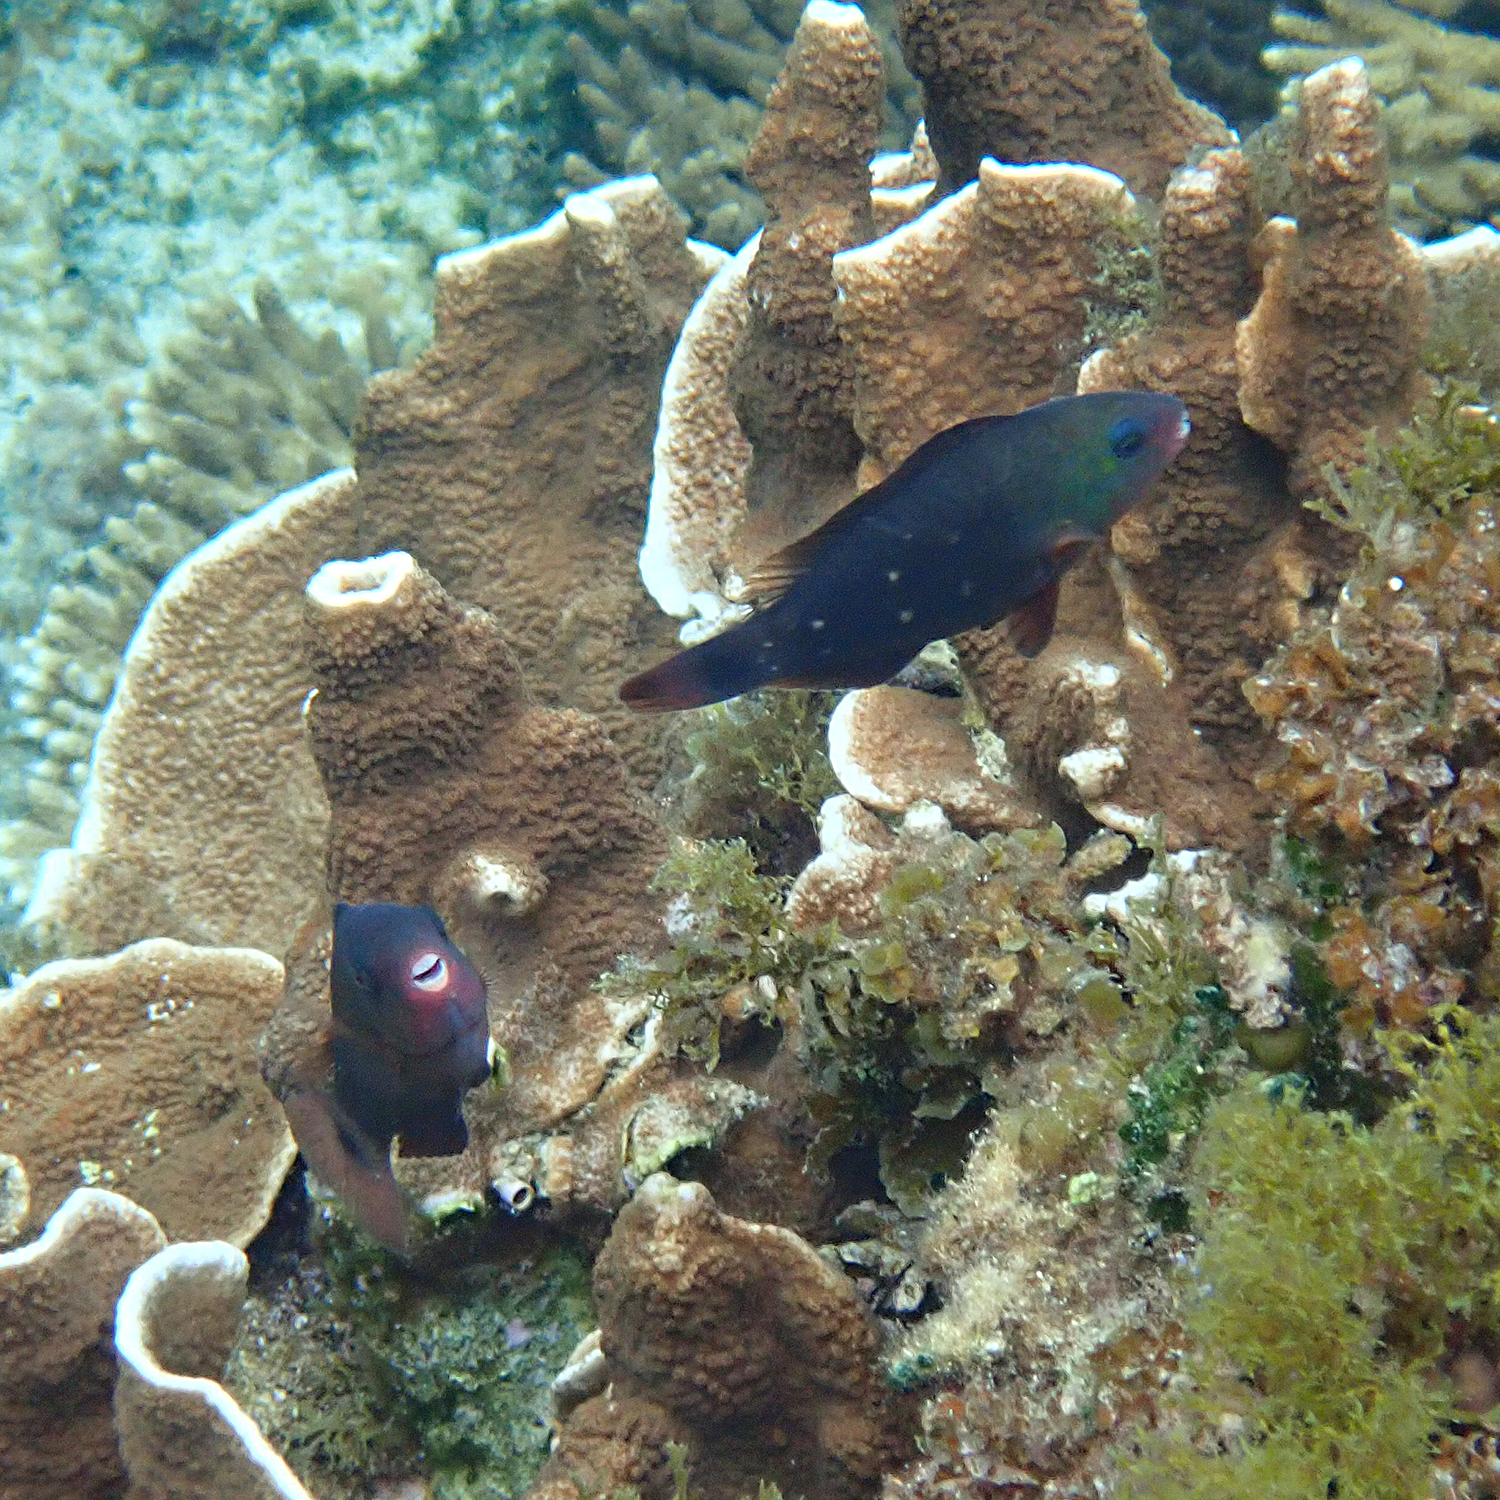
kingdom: Animalia
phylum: Chordata
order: Perciformes
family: Scaridae
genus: Chlorurus
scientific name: Chlorurus spilurus
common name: Bullethead parrotfish
